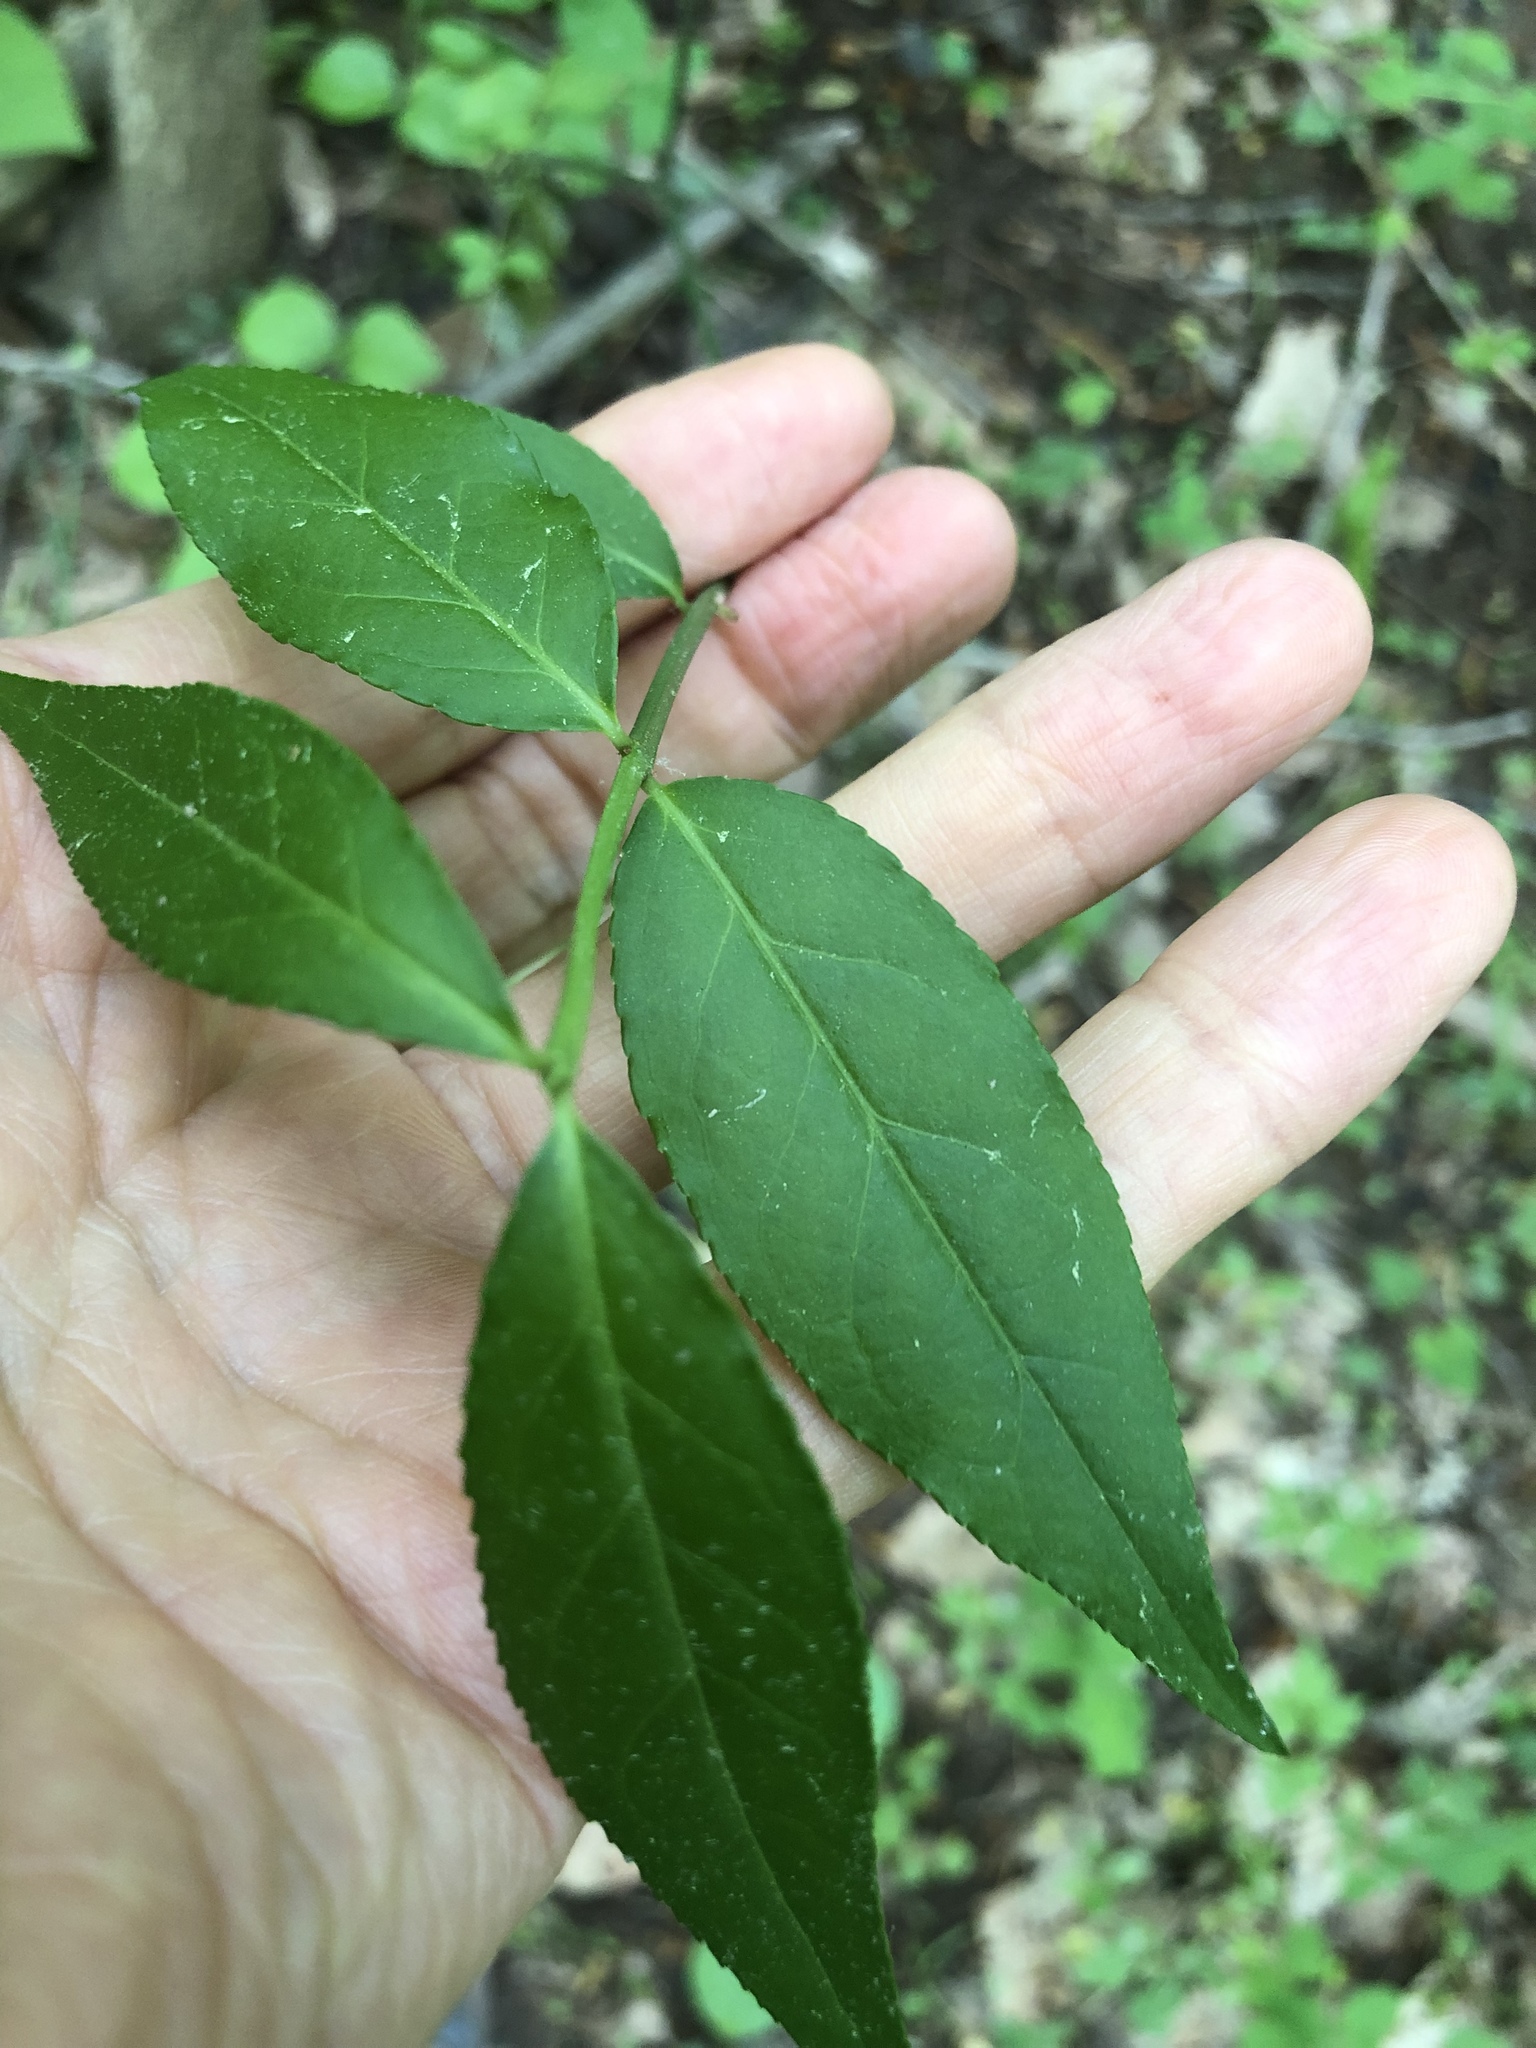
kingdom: Plantae
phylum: Tracheophyta
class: Magnoliopsida
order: Celastrales
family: Celastraceae
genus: Euonymus
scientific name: Euonymus americanus
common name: Bursting-heart
